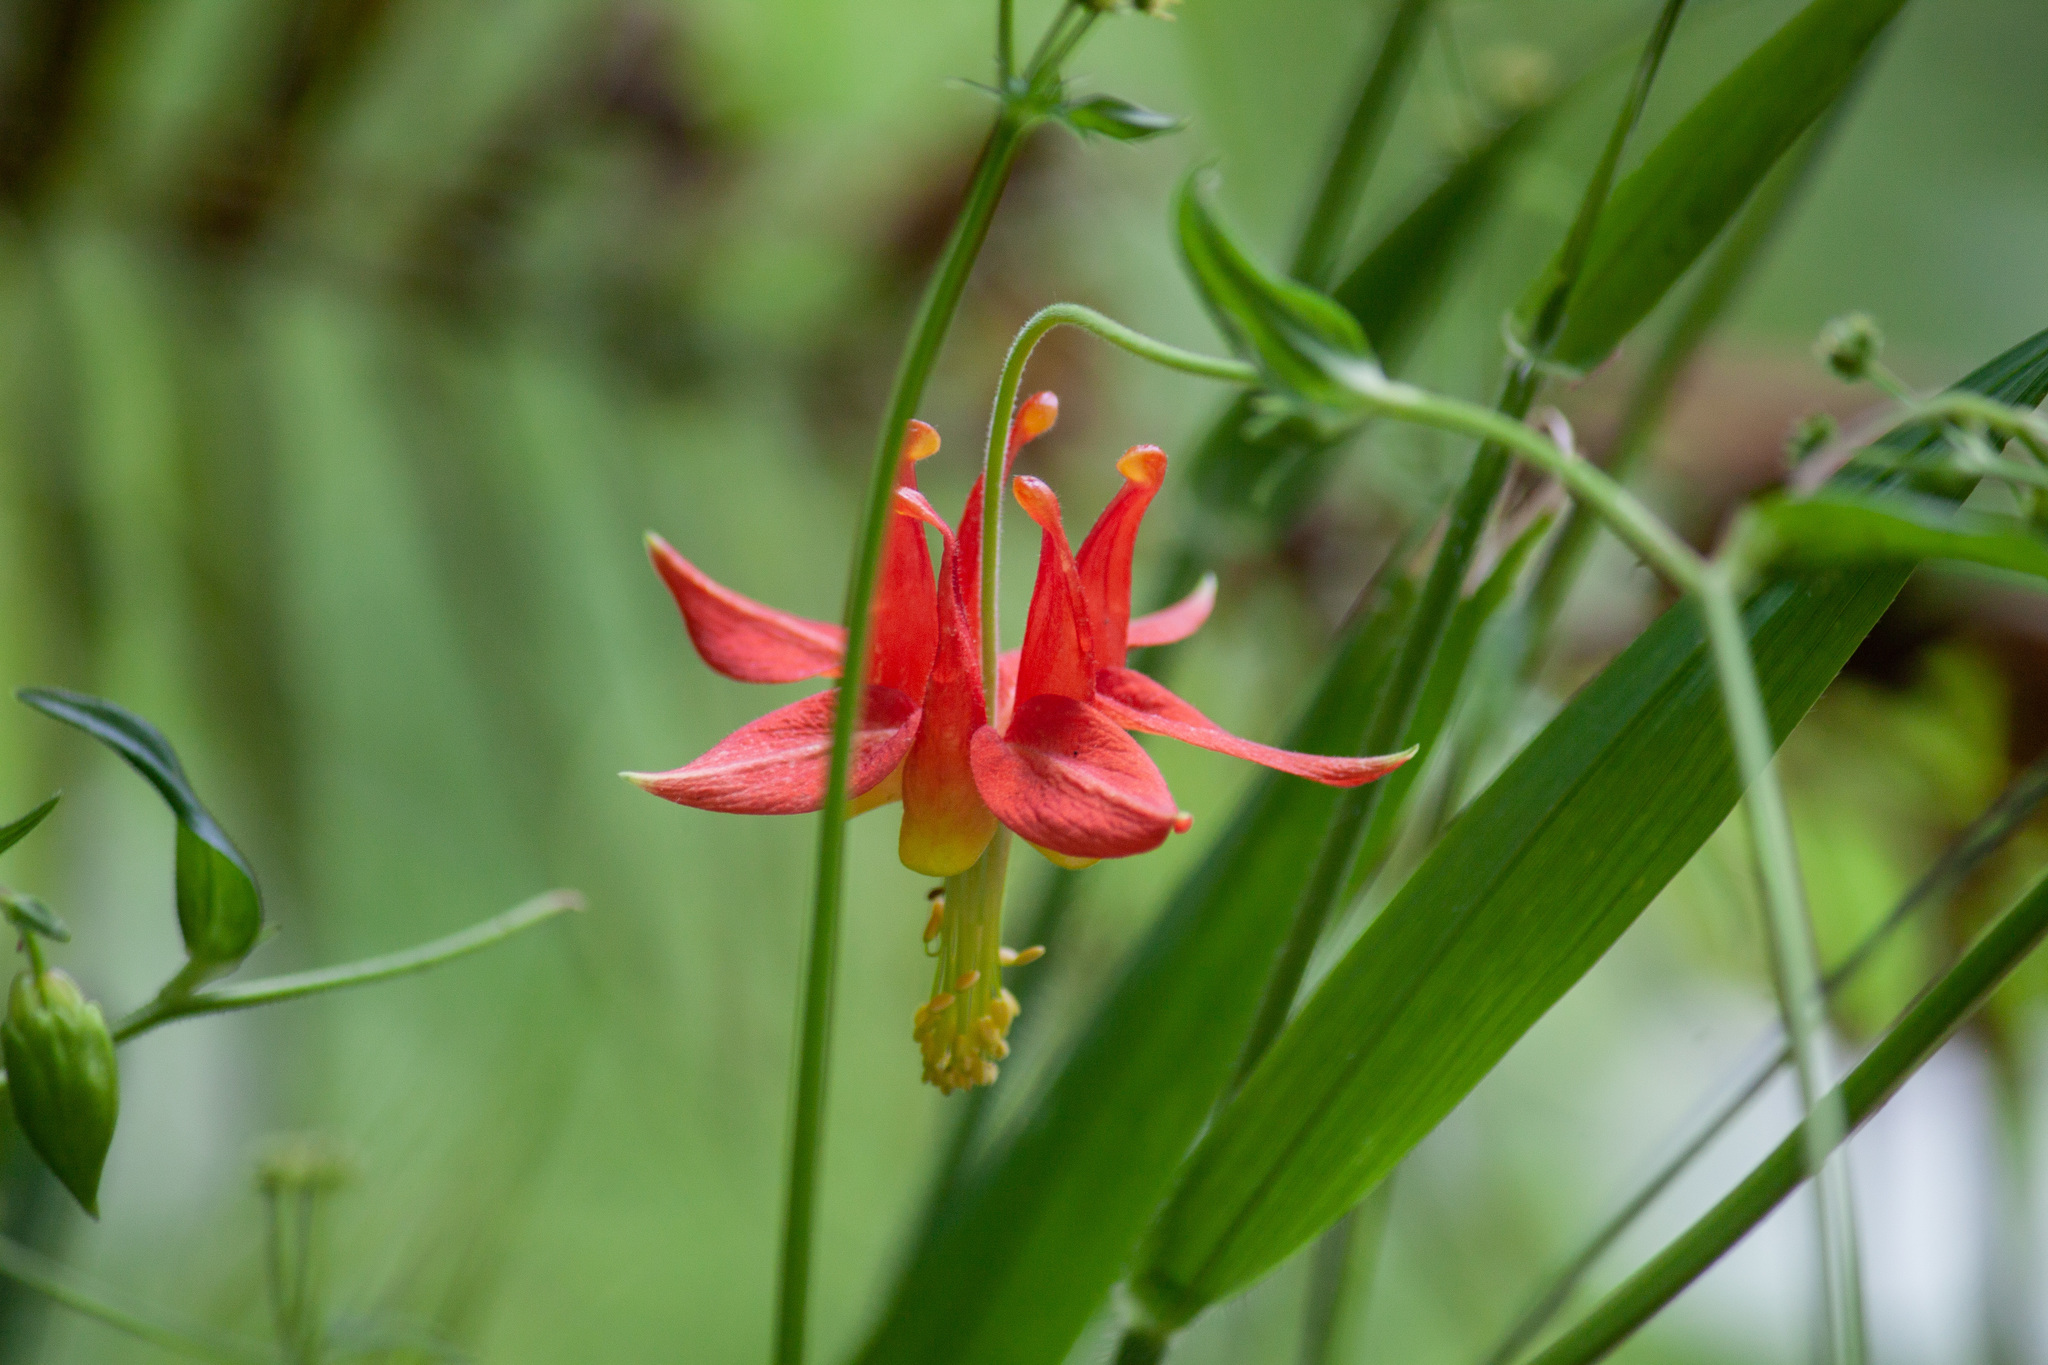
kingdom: Plantae
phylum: Tracheophyta
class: Magnoliopsida
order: Ranunculales
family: Ranunculaceae
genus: Aquilegia
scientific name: Aquilegia formosa
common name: Sitka columbine
